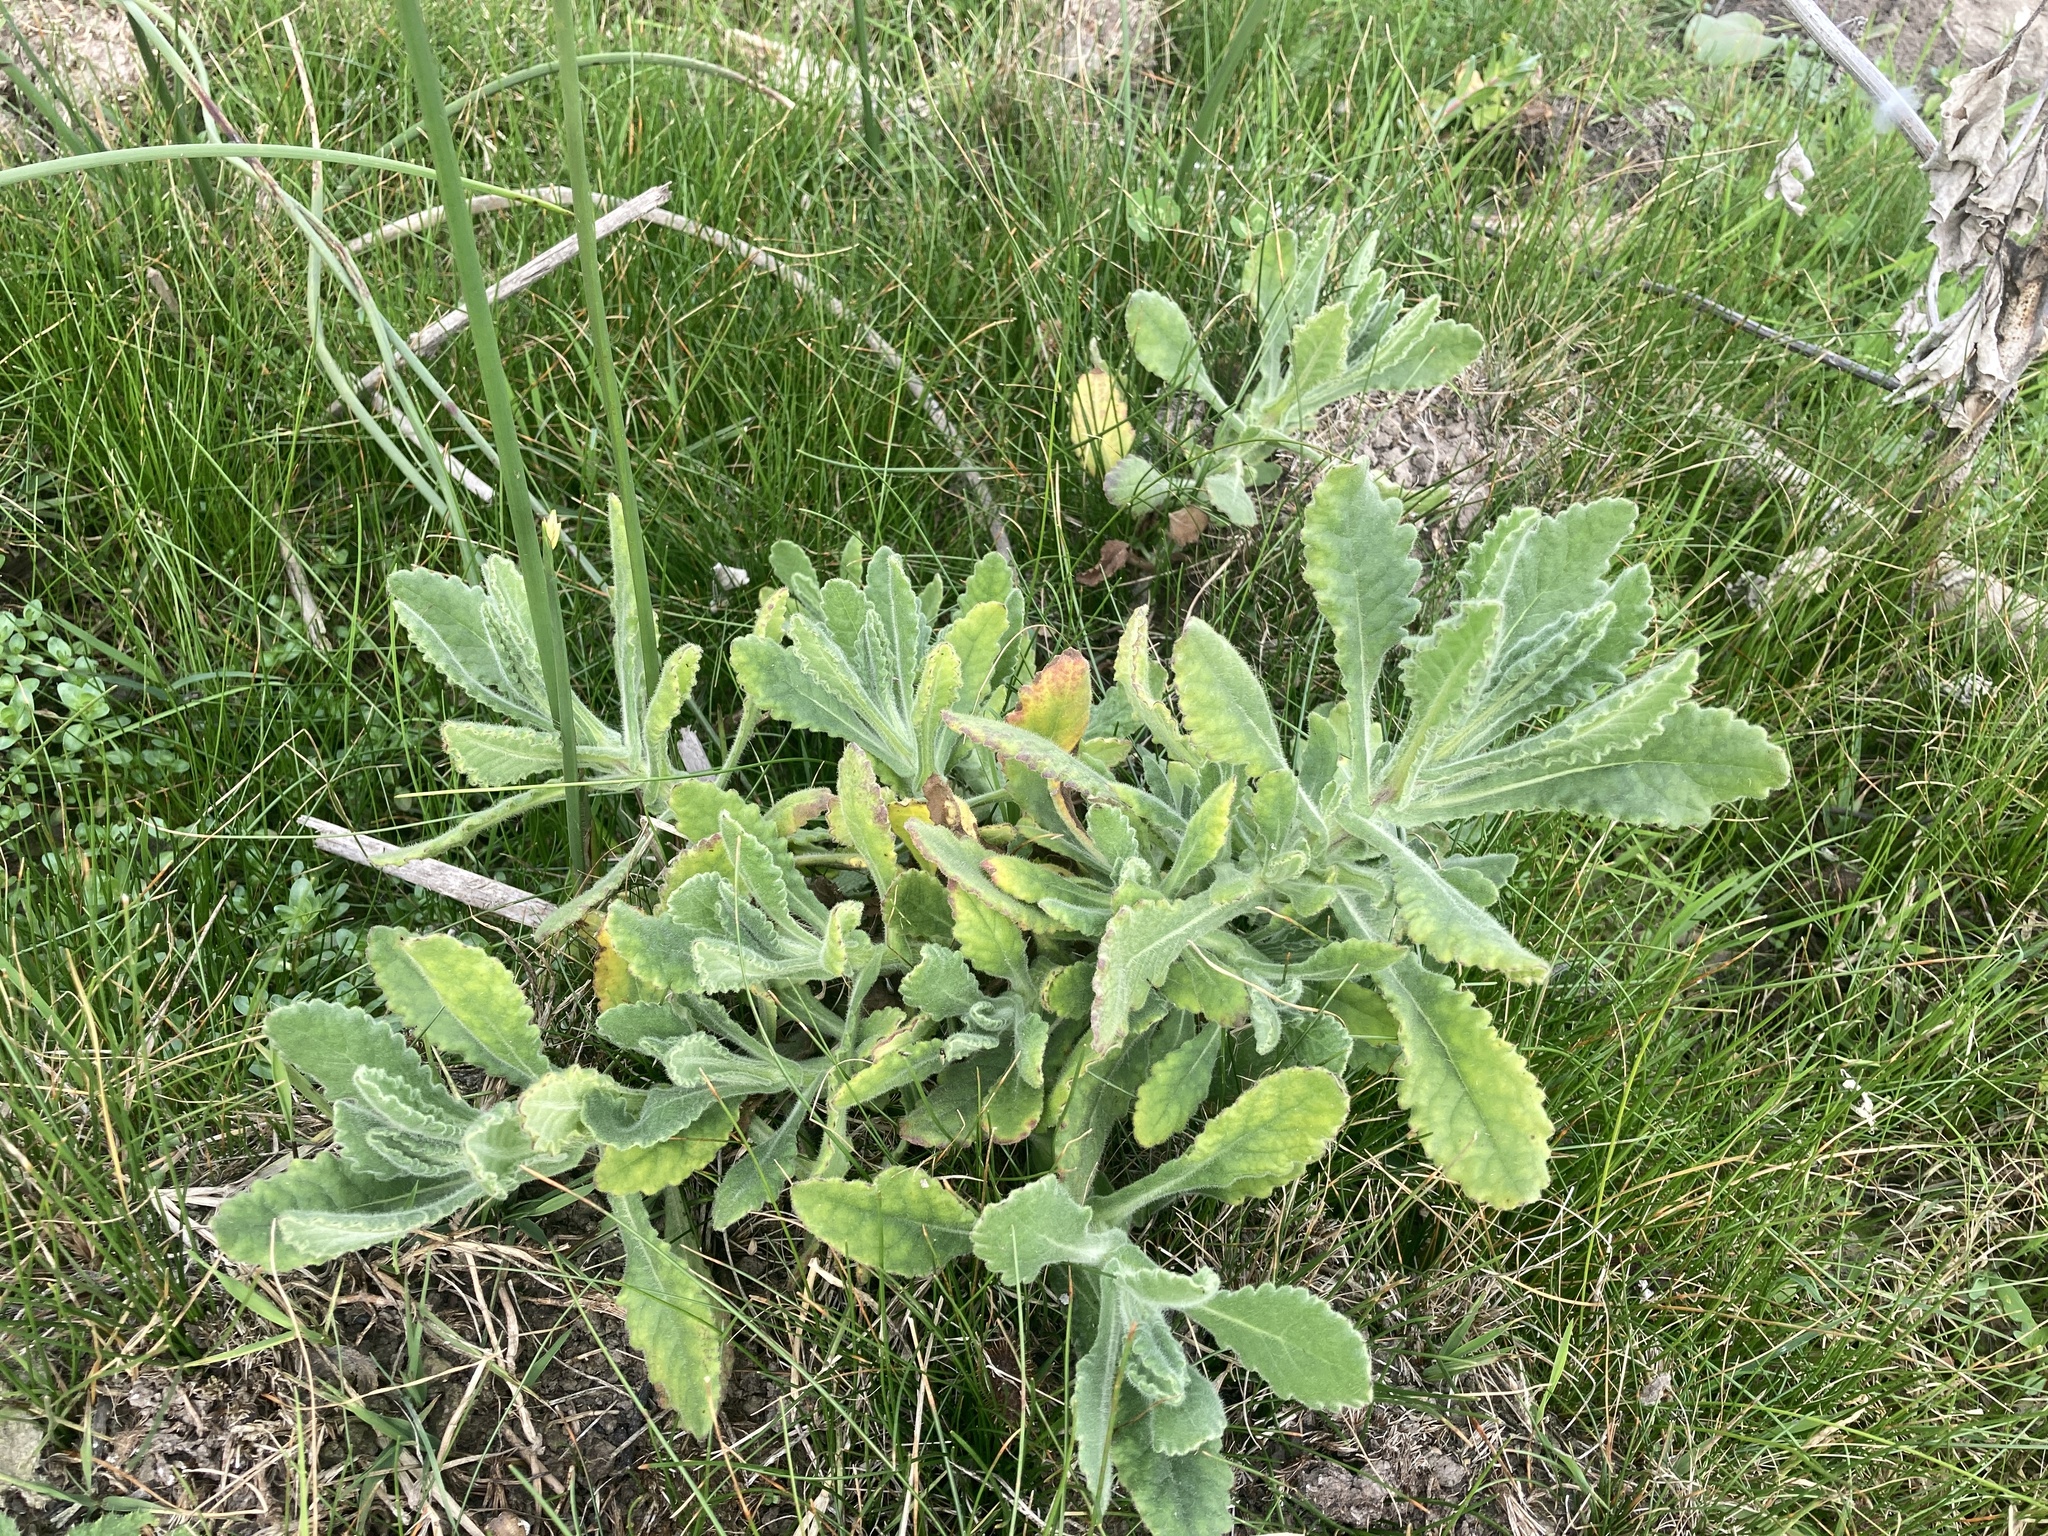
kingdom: Plantae
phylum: Tracheophyta
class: Magnoliopsida
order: Asterales
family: Asteraceae
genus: Senecio
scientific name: Senecio selloi
